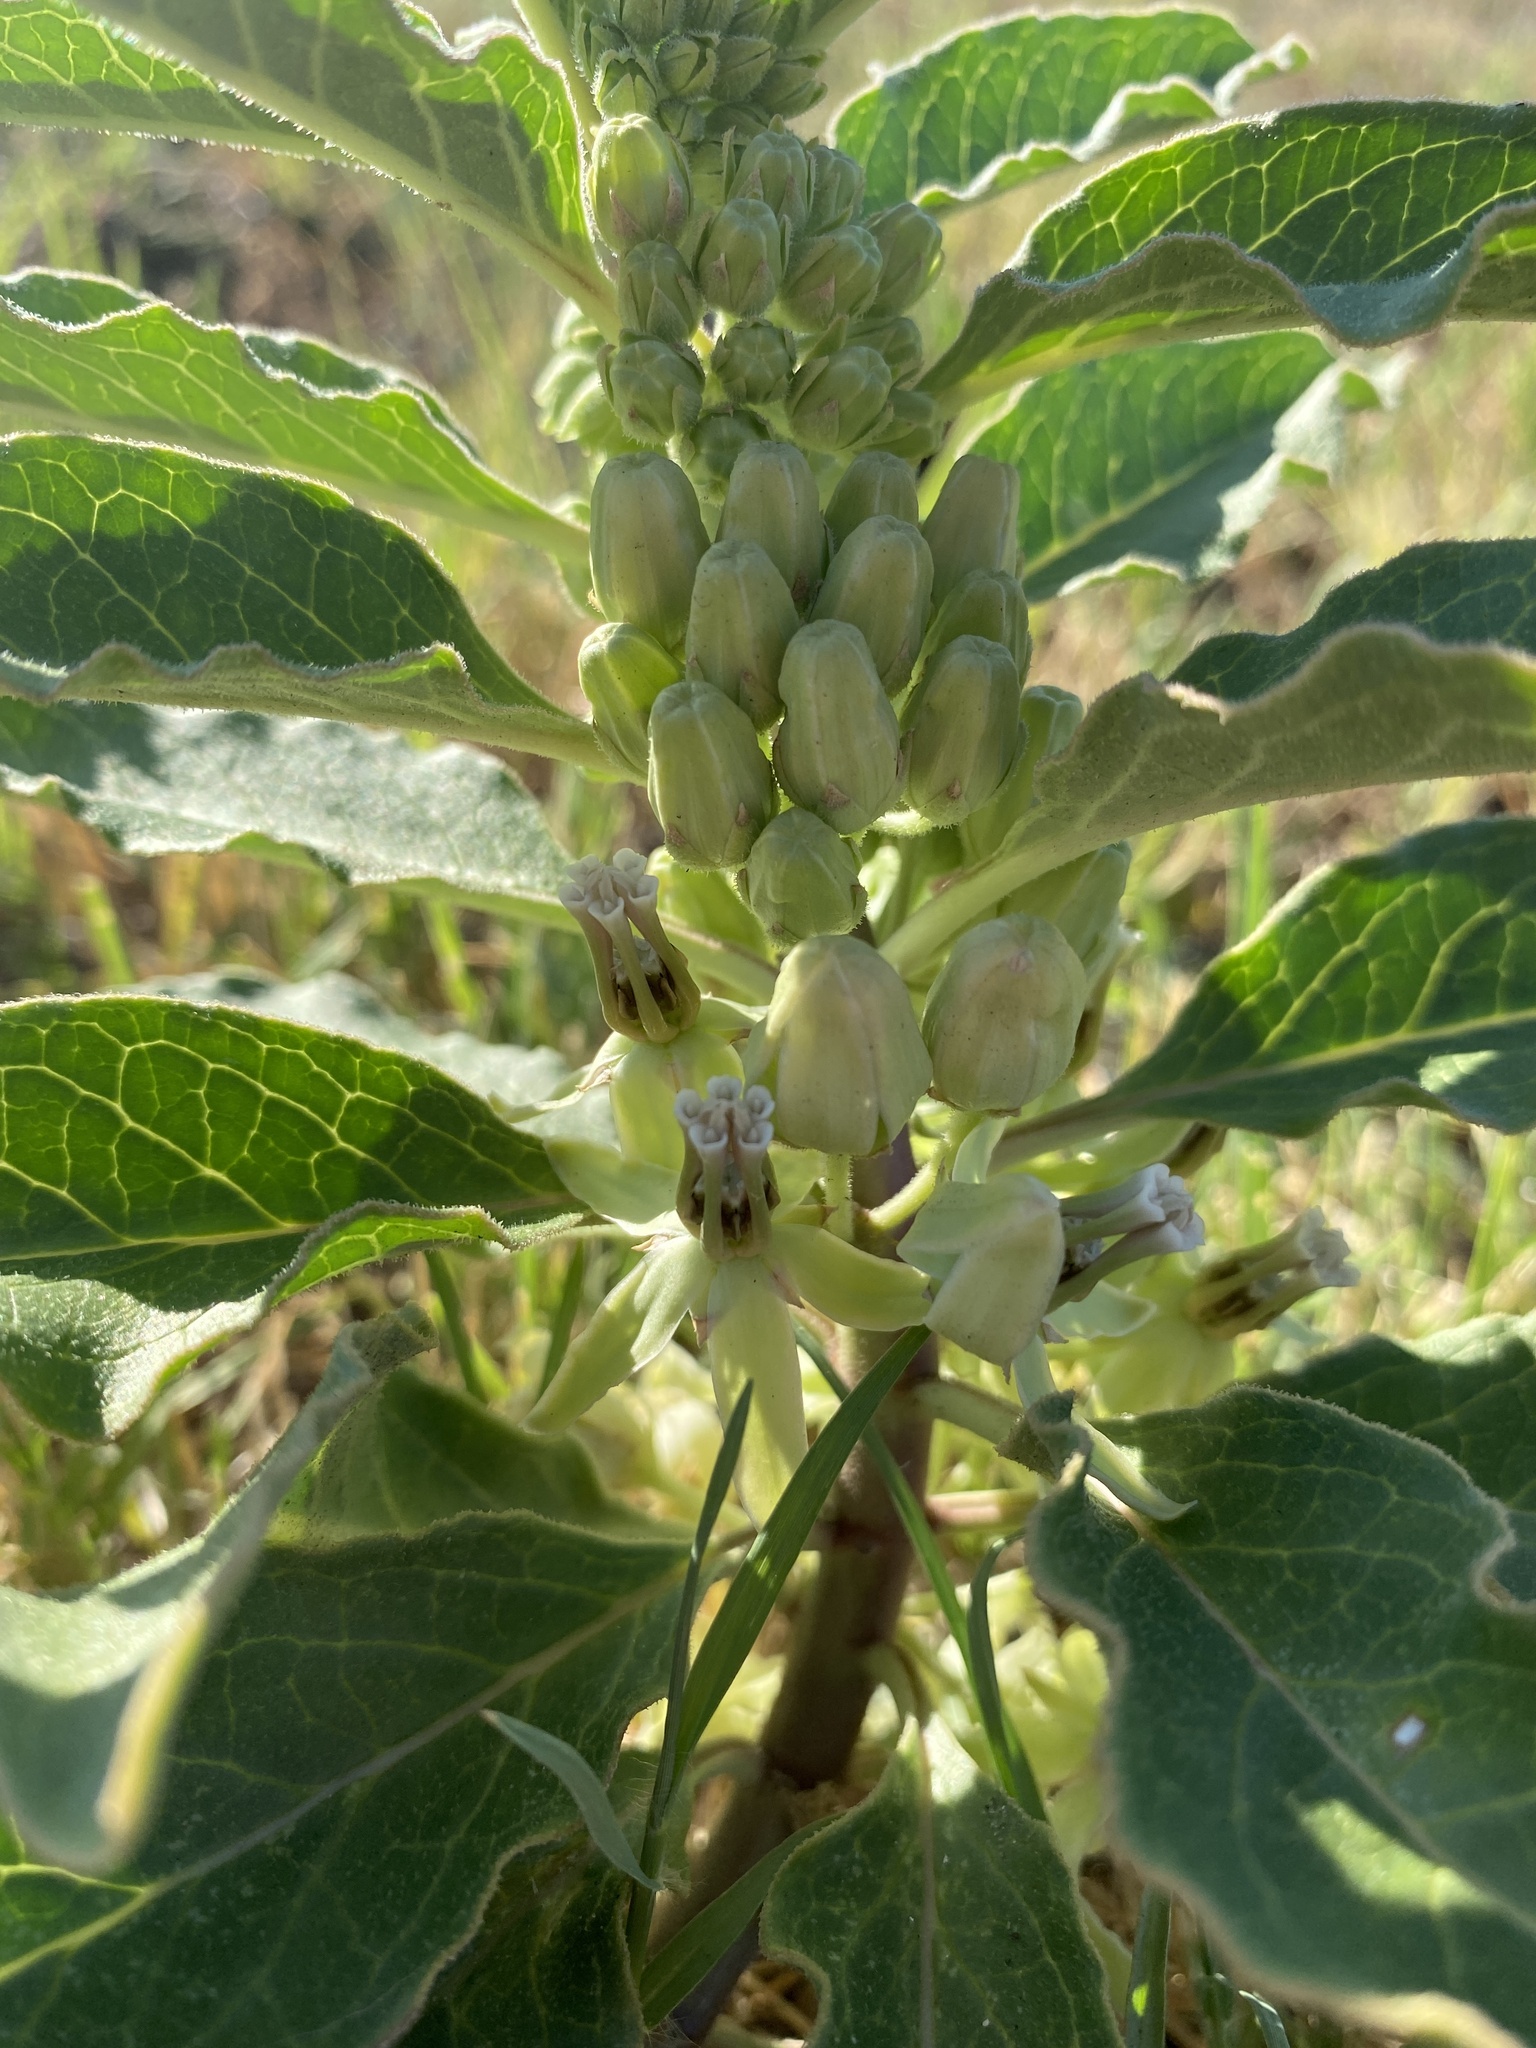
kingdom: Plantae
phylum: Tracheophyta
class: Magnoliopsida
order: Gentianales
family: Apocynaceae
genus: Asclepias
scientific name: Asclepias oenotheroides
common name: Zizotes milkweed
